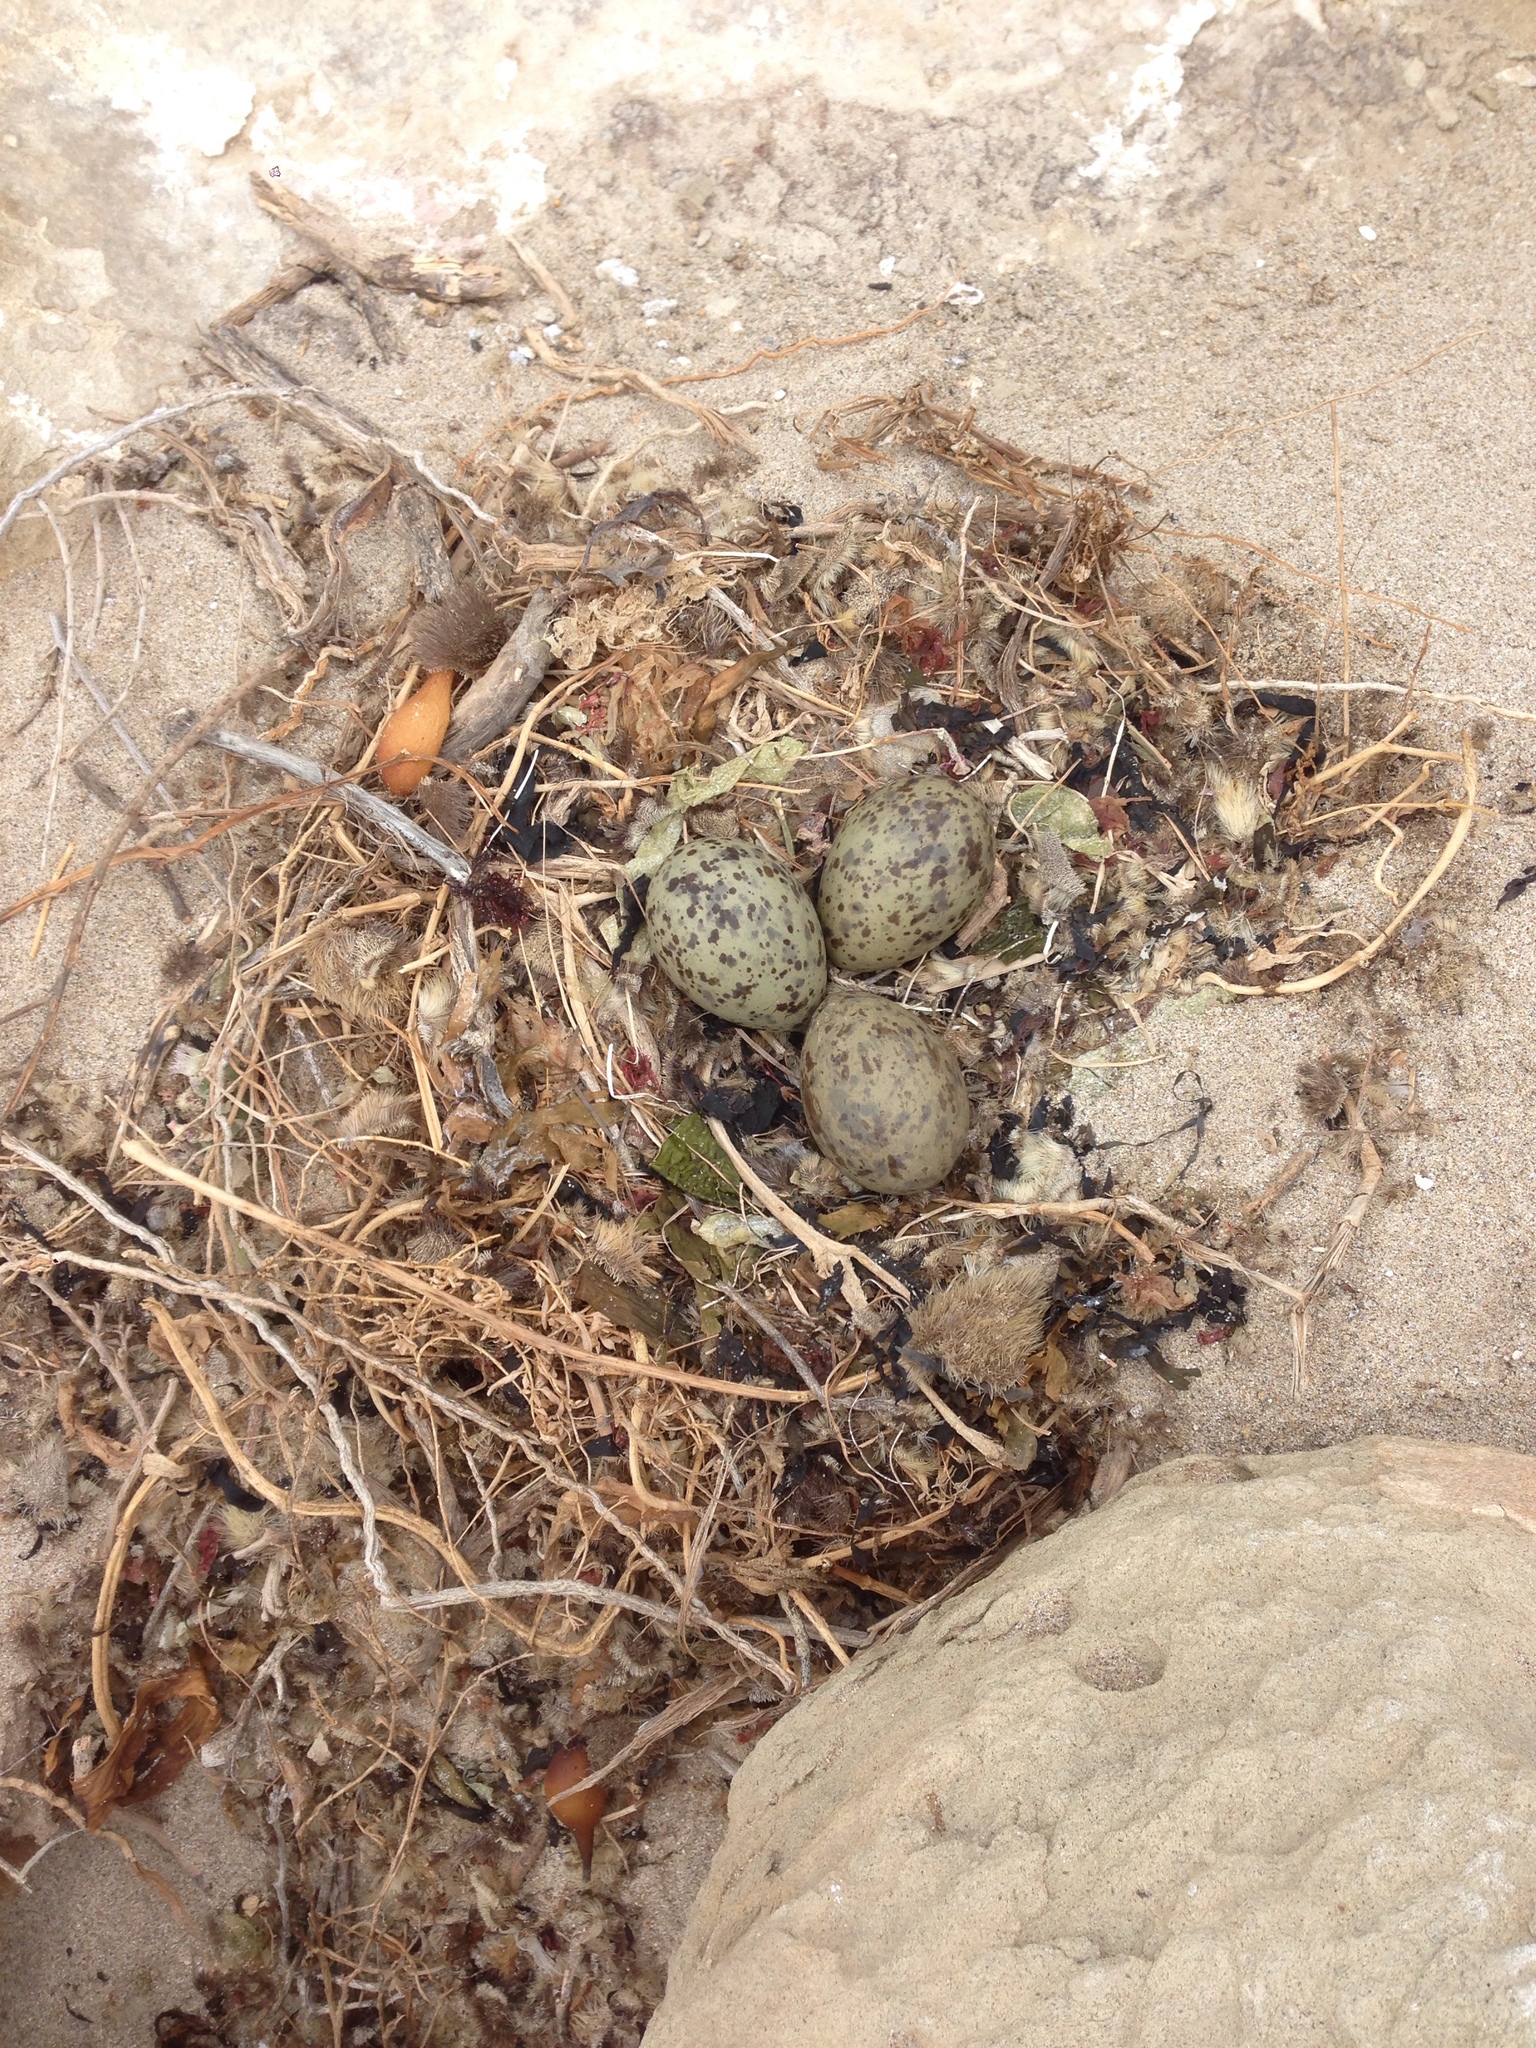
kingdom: Animalia
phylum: Chordata
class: Aves
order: Charadriiformes
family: Laridae
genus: Larus
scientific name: Larus occidentalis
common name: Western gull
